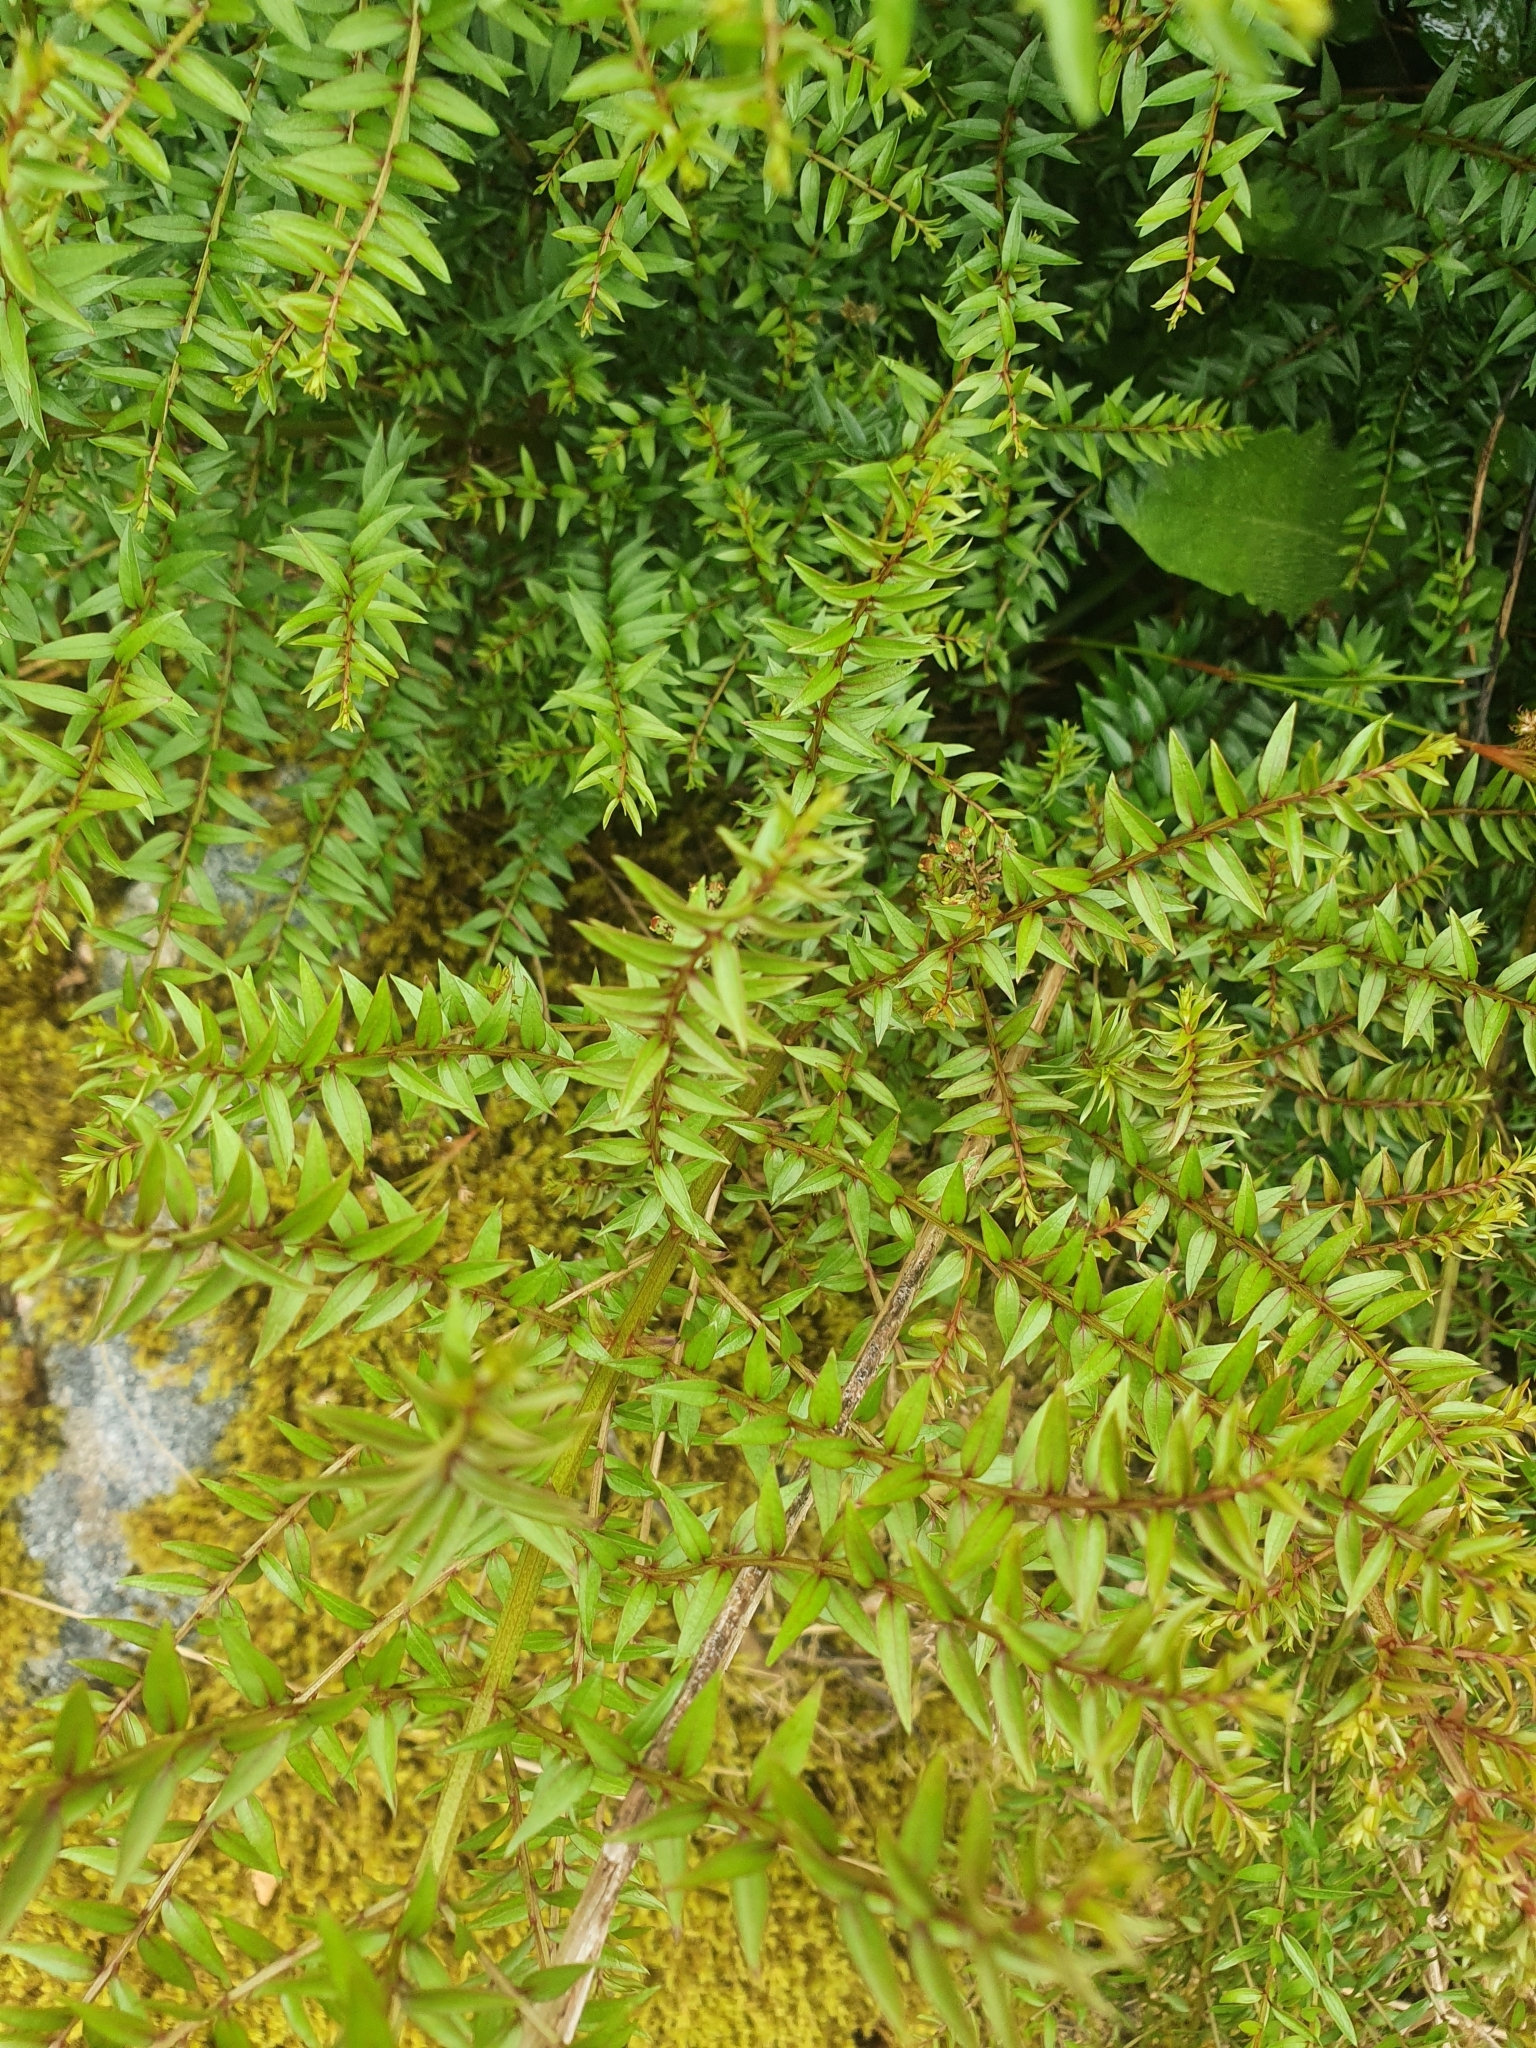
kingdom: Plantae
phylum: Tracheophyta
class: Magnoliopsida
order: Cucurbitales
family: Coriariaceae
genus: Coriaria
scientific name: Coriaria plumosa
